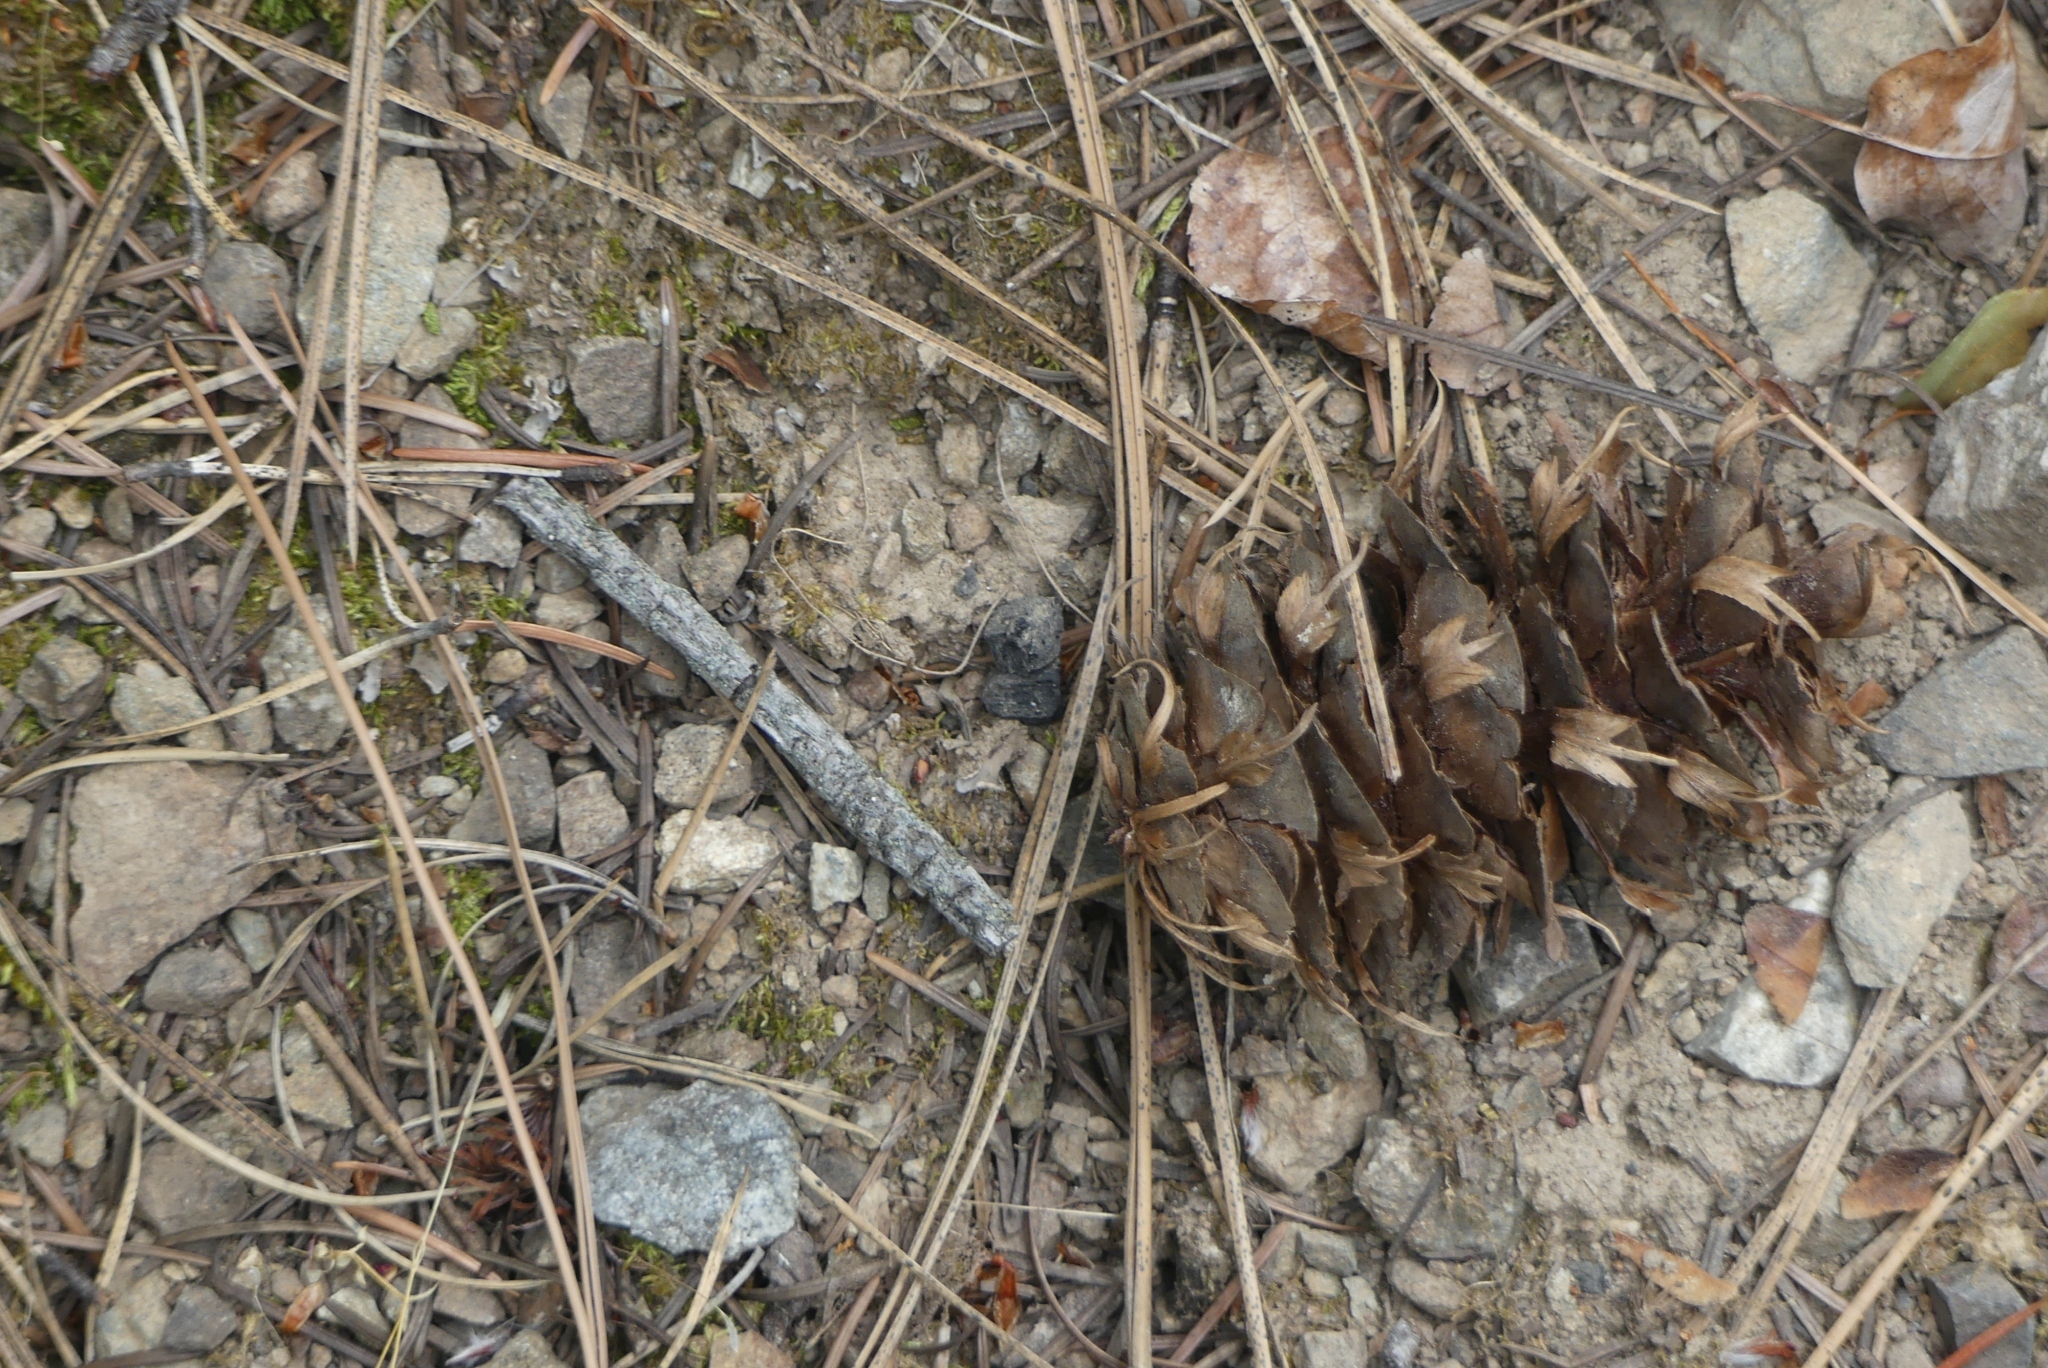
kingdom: Plantae
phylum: Tracheophyta
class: Pinopsida
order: Pinales
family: Pinaceae
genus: Pseudotsuga
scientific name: Pseudotsuga menziesii
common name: Douglas fir
